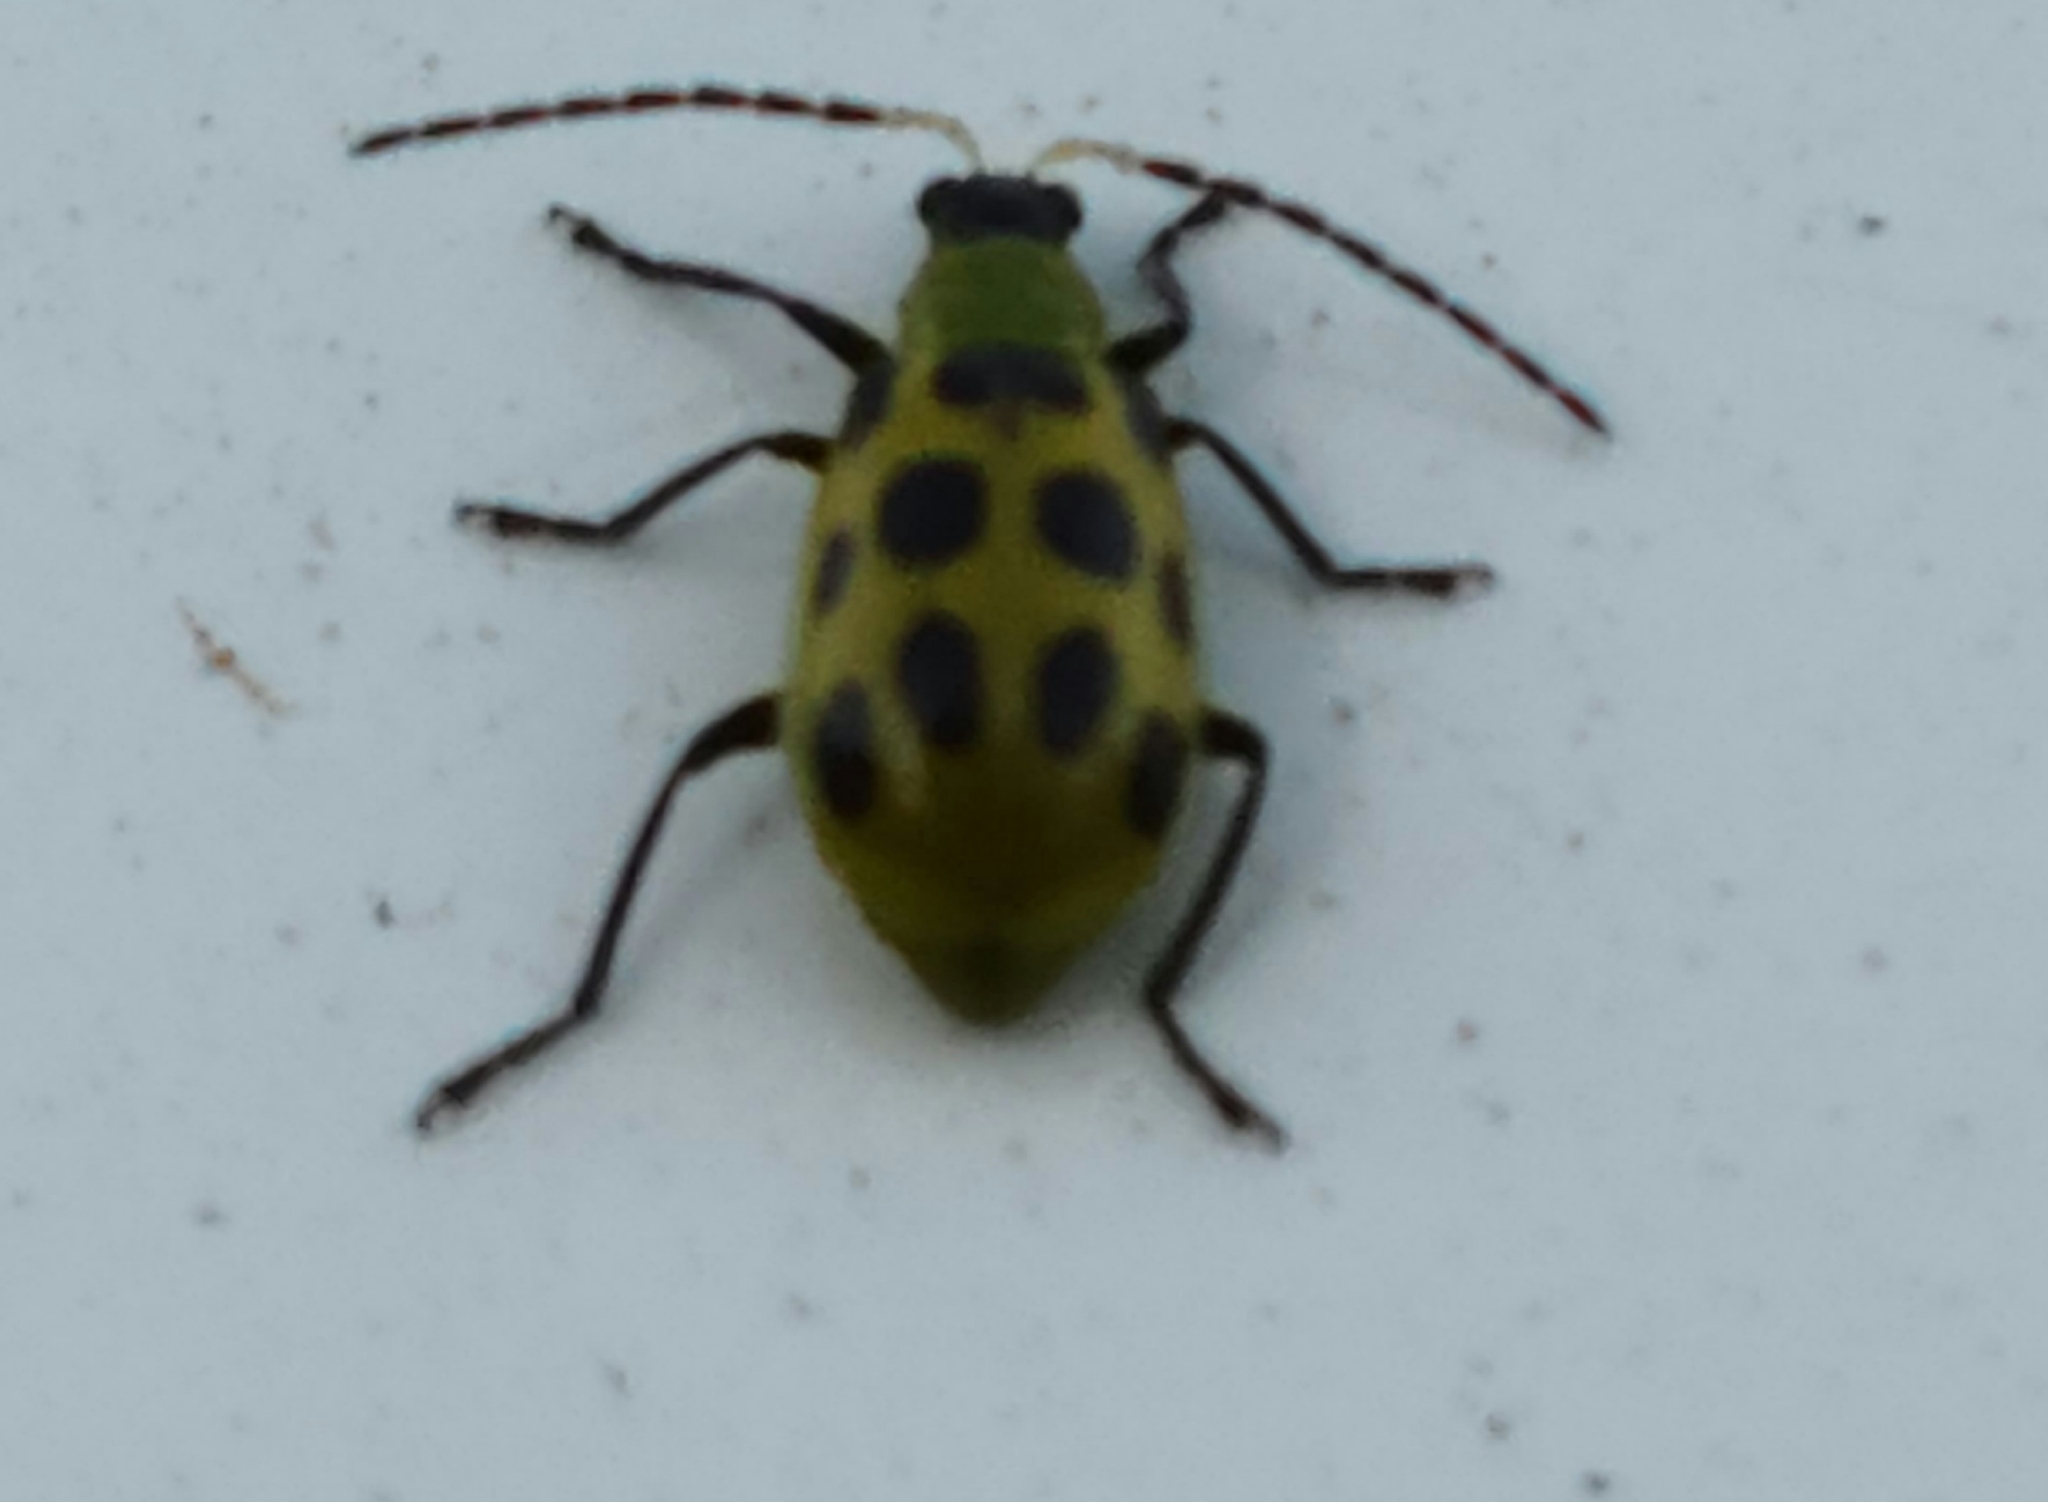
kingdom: Animalia
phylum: Arthropoda
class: Insecta
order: Coleoptera
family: Chrysomelidae
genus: Diabrotica
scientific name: Diabrotica undecimpunctata
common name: Spotted cucumber beetle
